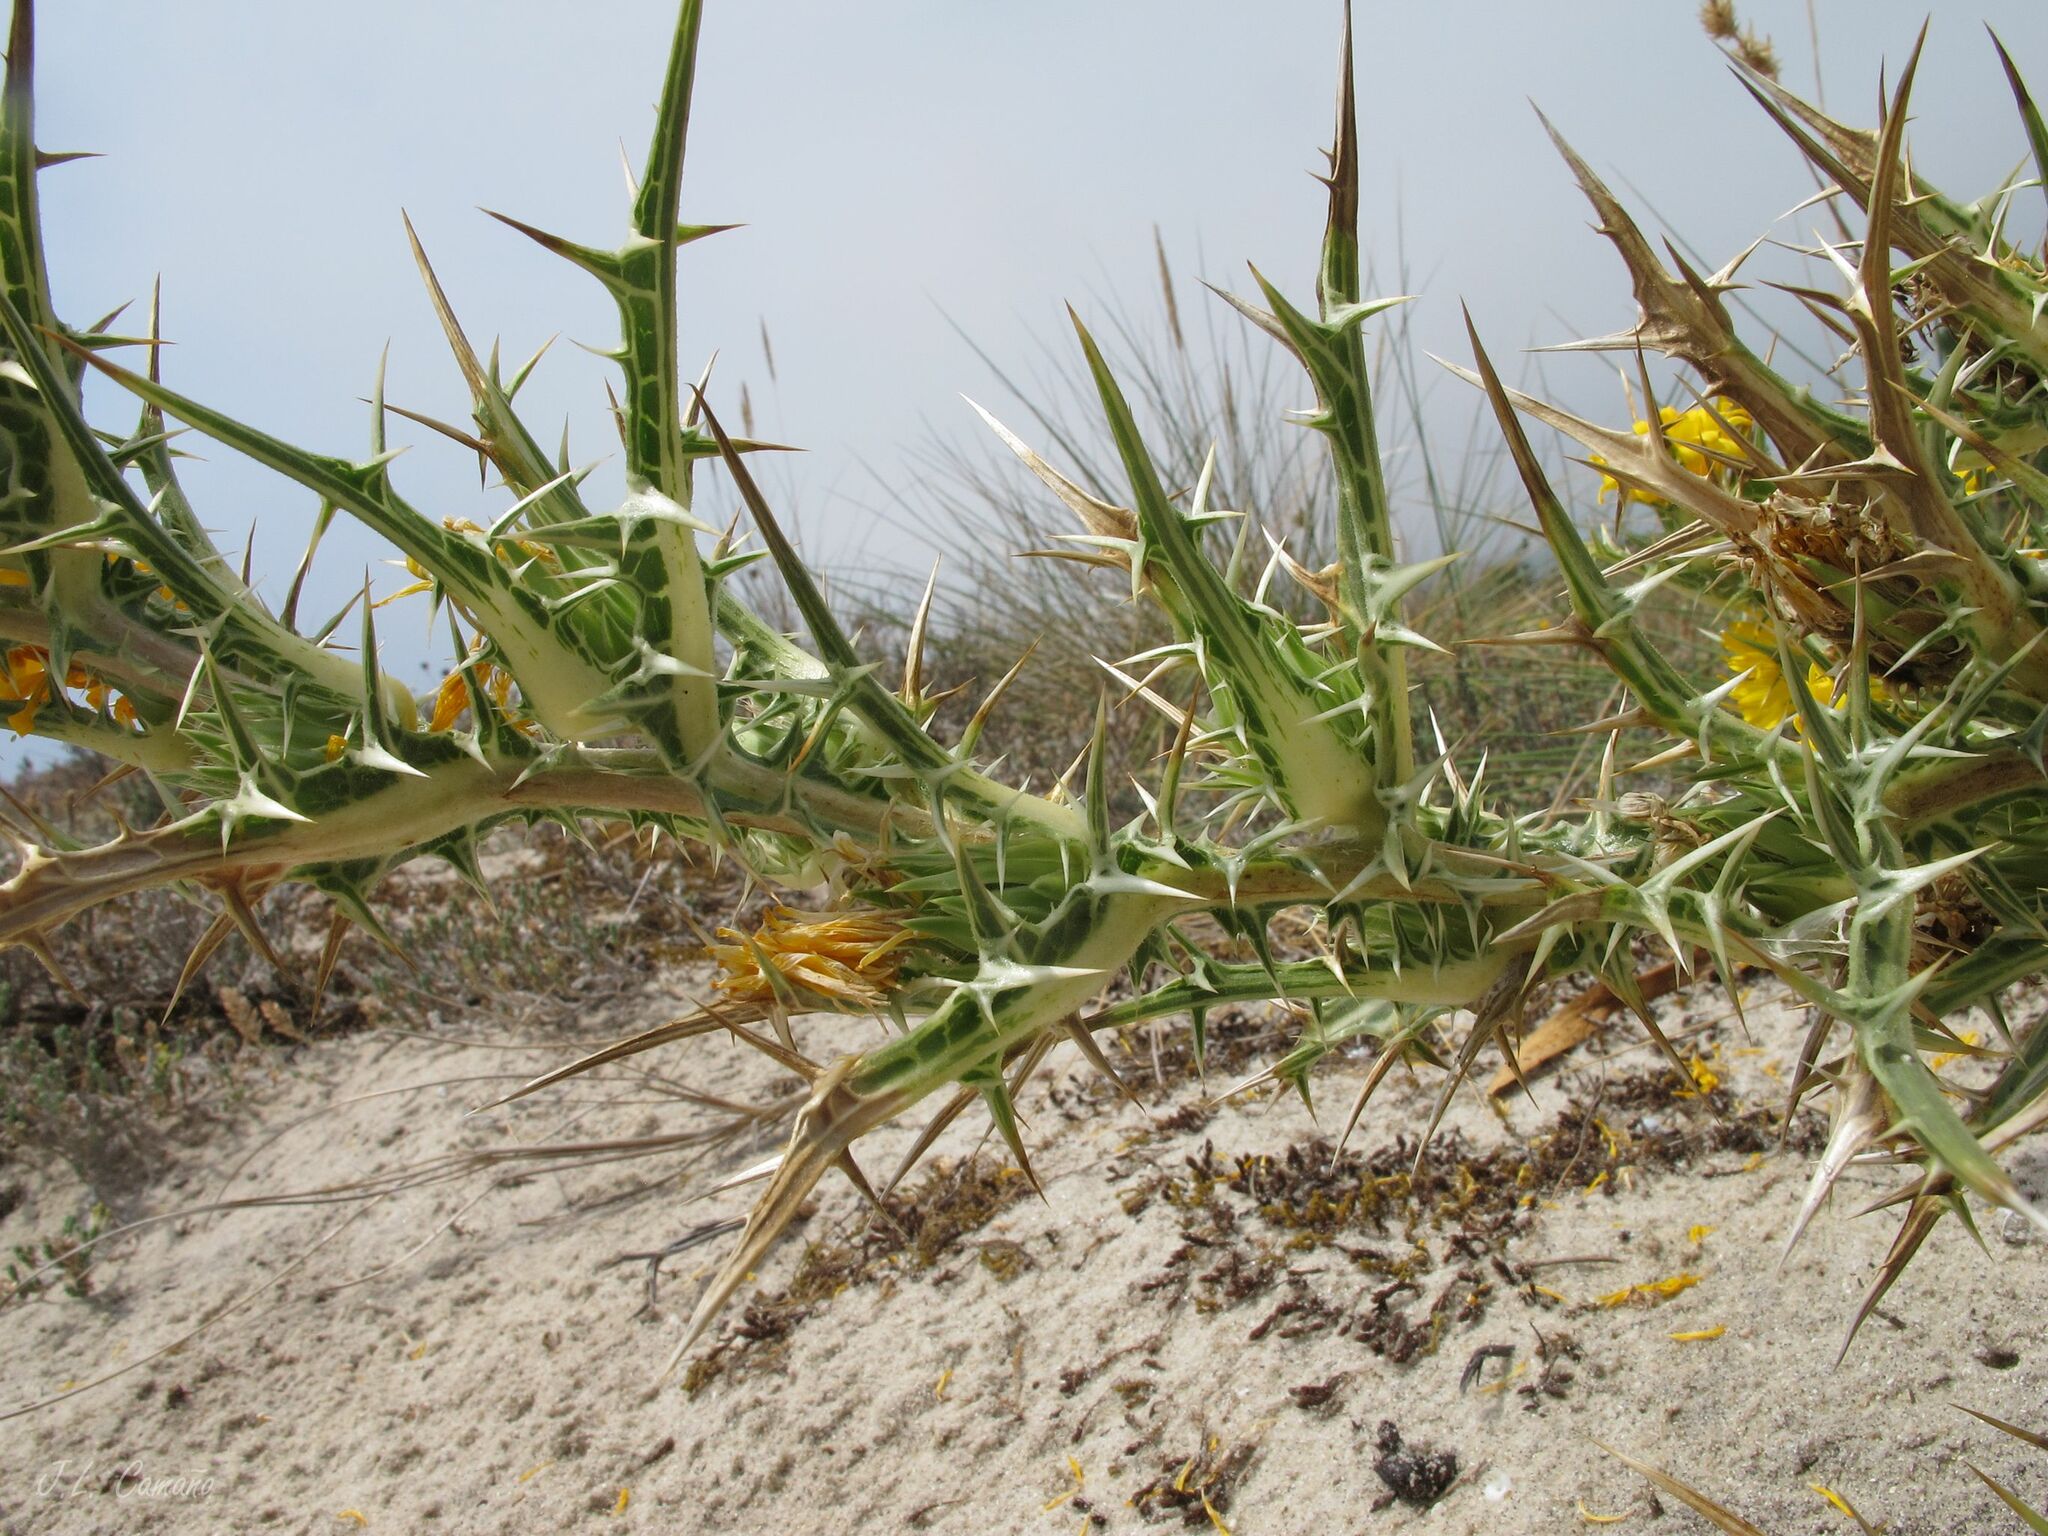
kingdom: Plantae
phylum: Tracheophyta
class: Magnoliopsida
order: Asterales
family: Asteraceae
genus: Scolymus
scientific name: Scolymus hispanicus
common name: Golden thistle
